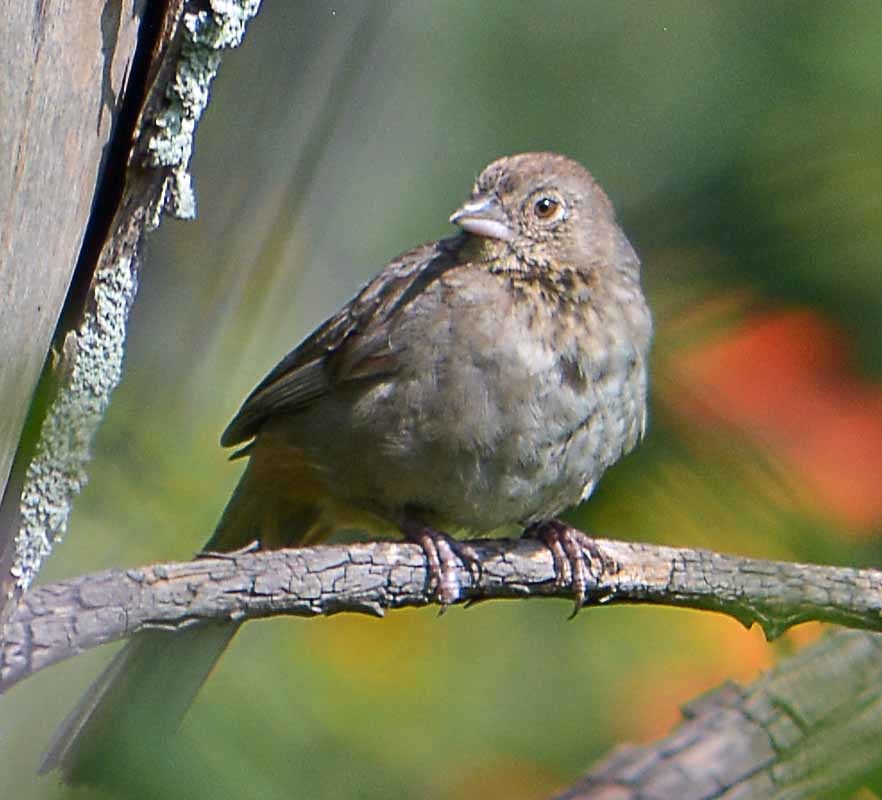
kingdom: Animalia
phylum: Chordata
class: Aves
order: Passeriformes
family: Passerellidae
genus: Melozone
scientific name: Melozone fusca
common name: Canyon towhee
